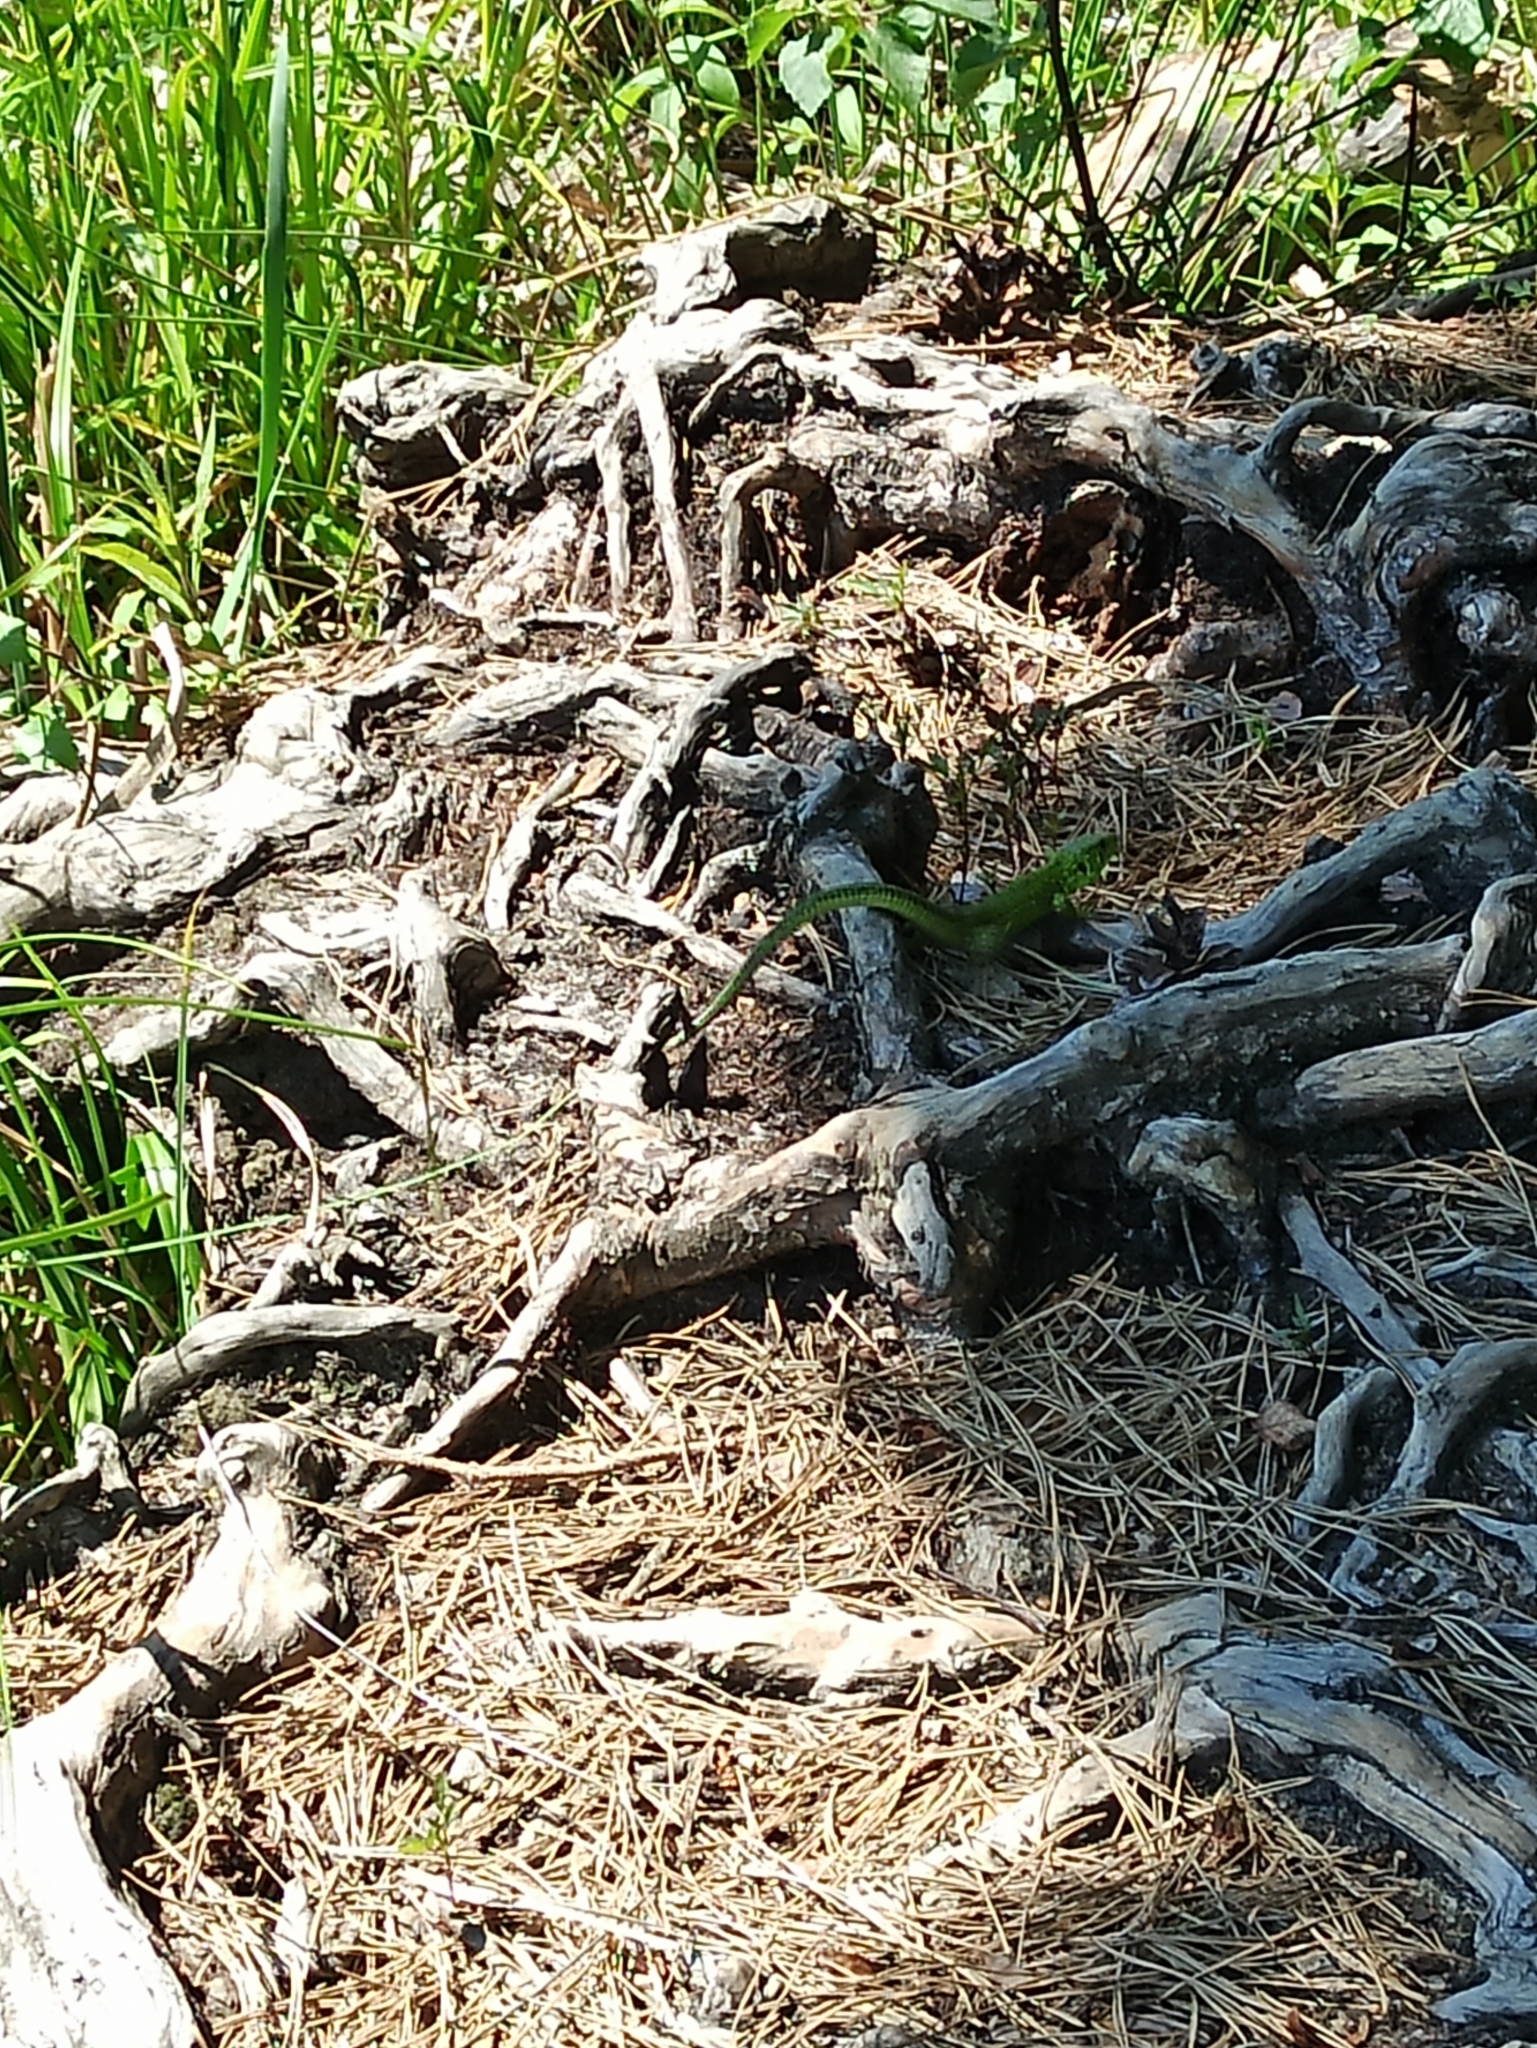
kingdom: Animalia
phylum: Chordata
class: Squamata
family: Lacertidae
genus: Lacerta
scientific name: Lacerta agilis
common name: Sand lizard
